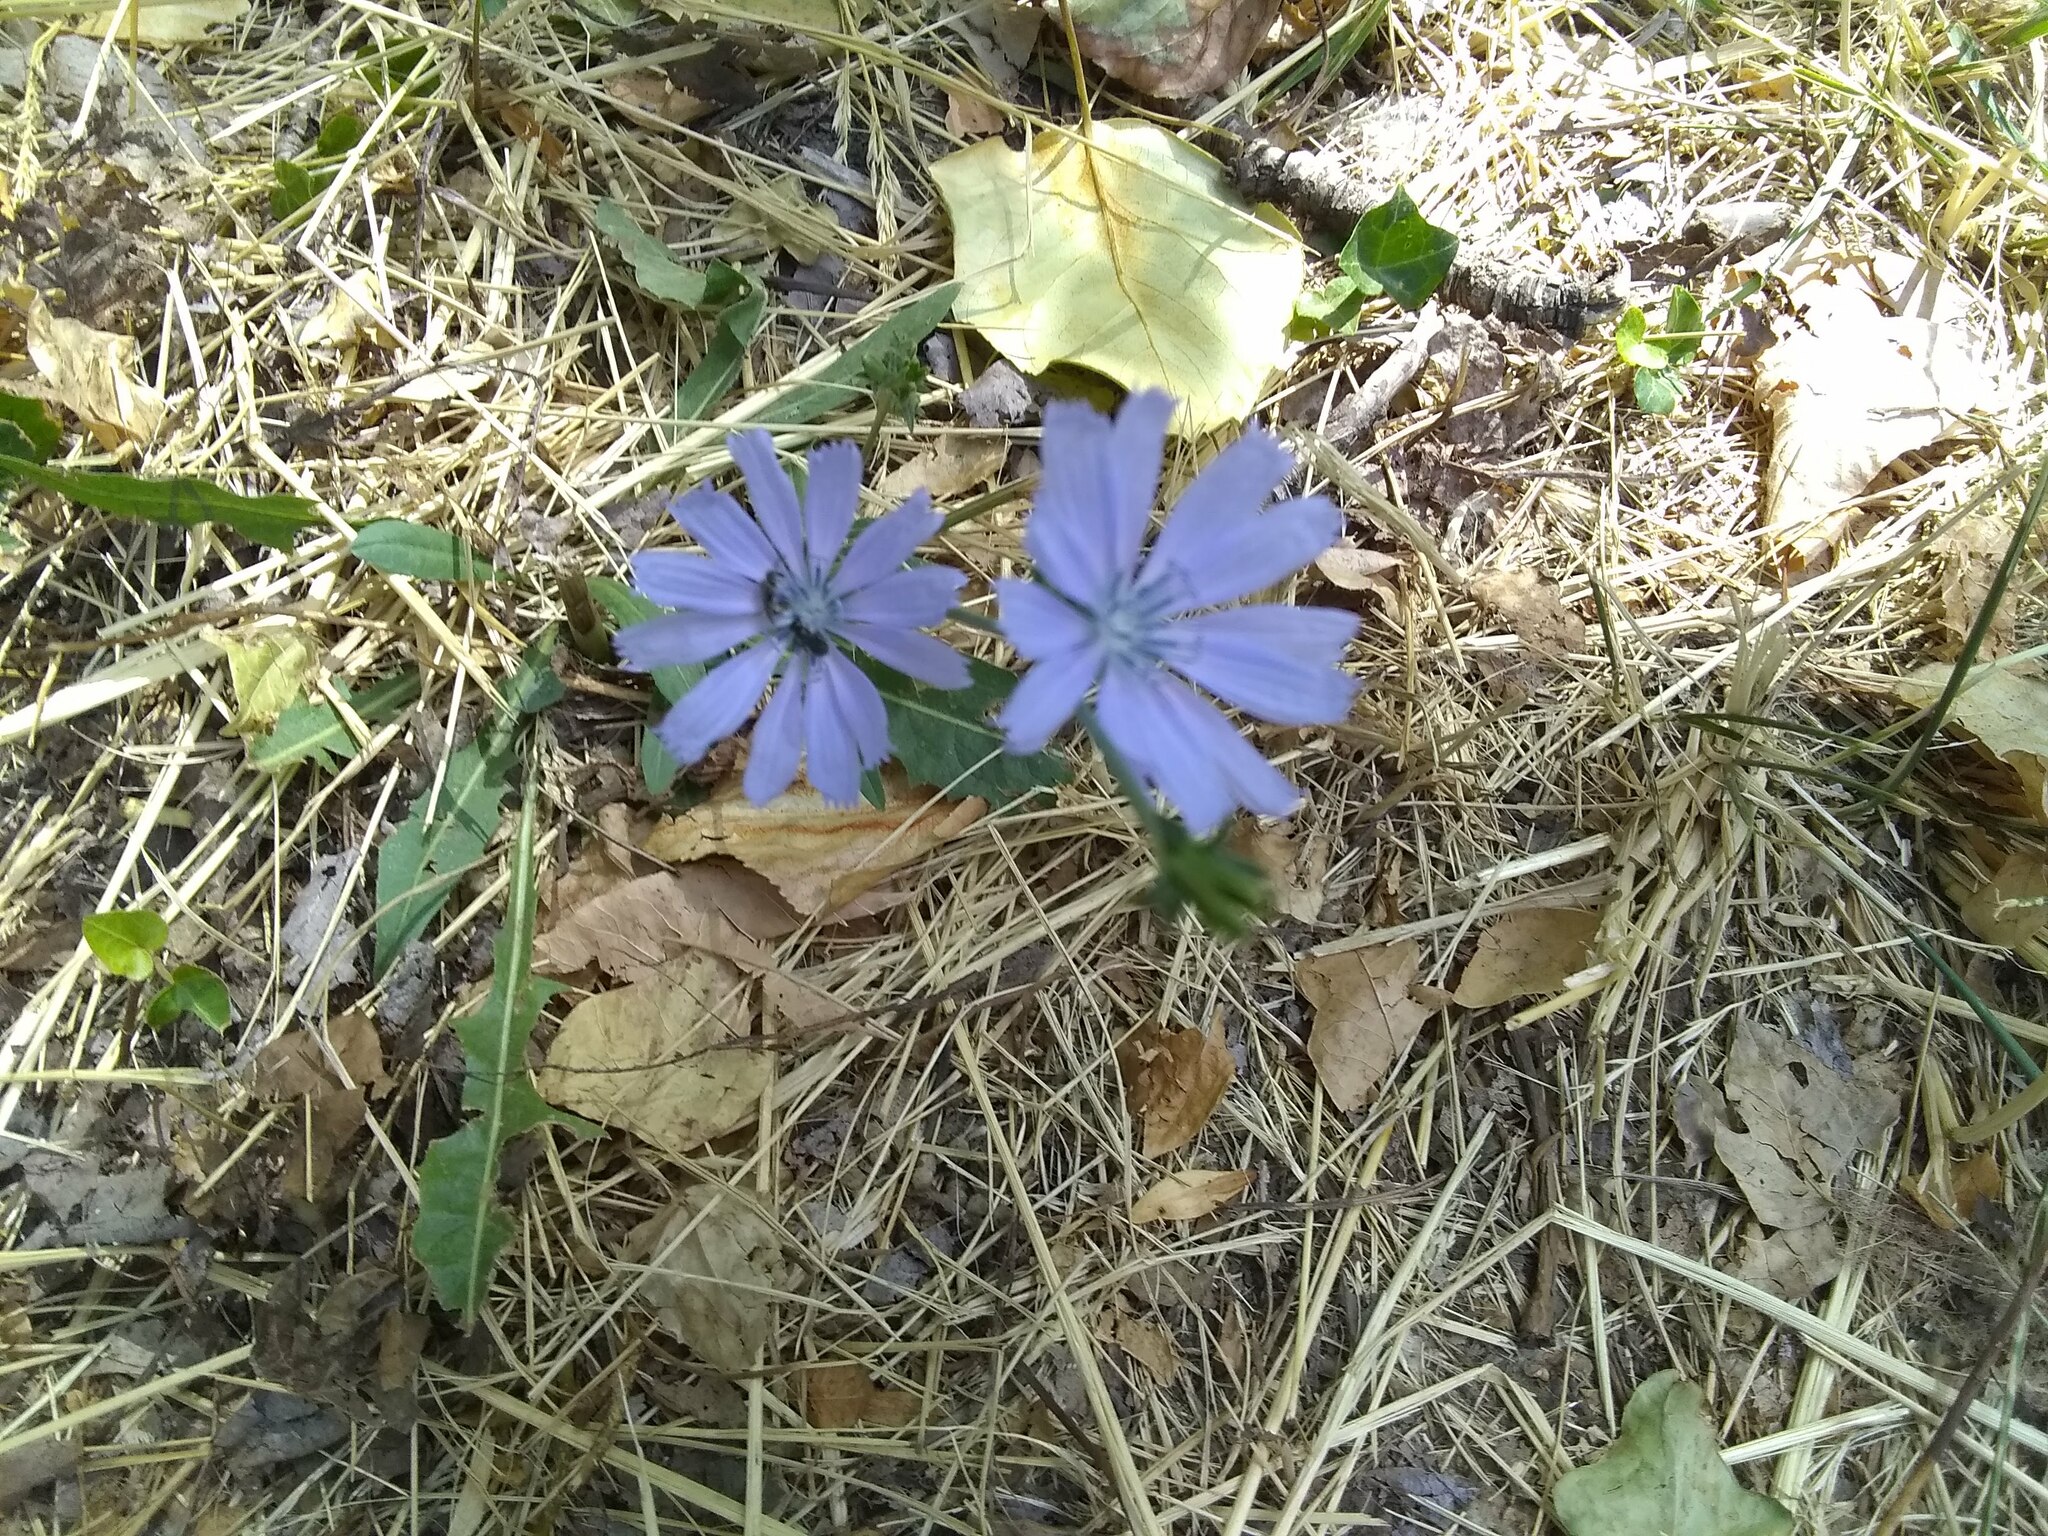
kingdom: Plantae
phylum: Tracheophyta
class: Magnoliopsida
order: Asterales
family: Asteraceae
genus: Cichorium
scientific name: Cichorium intybus
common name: Chicory
